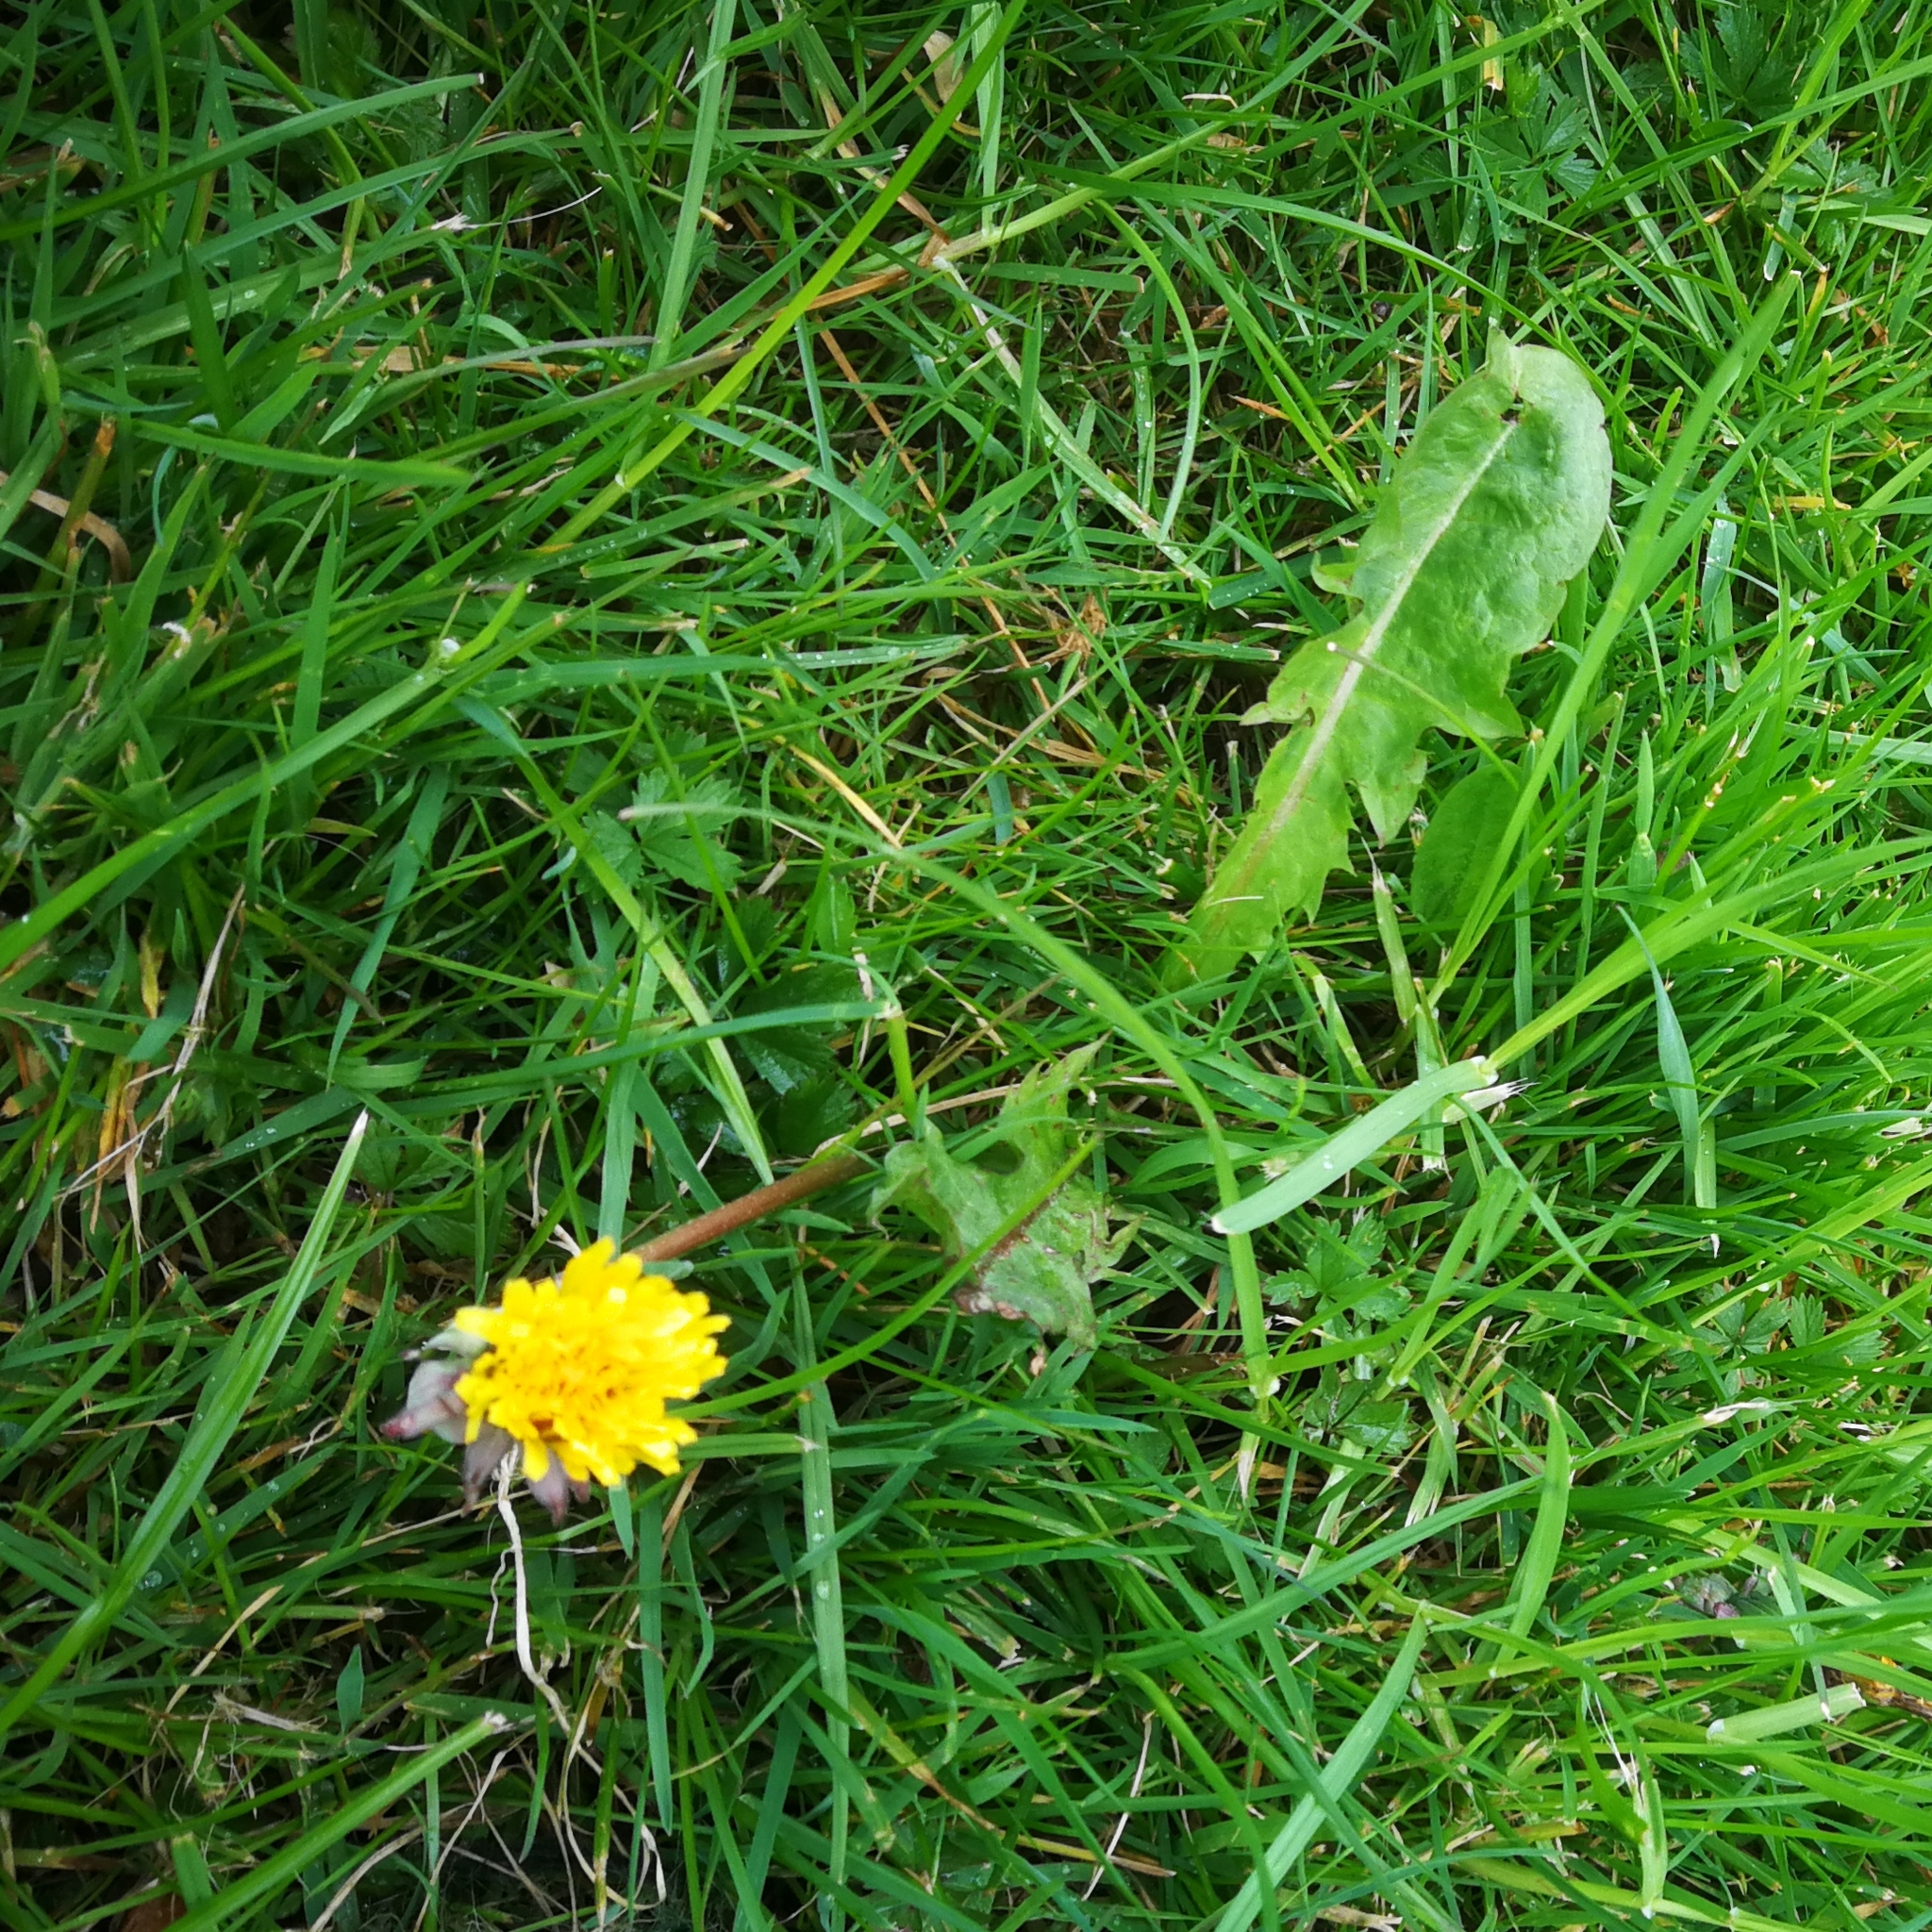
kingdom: Plantae
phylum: Tracheophyta
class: Magnoliopsida
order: Asterales
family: Asteraceae
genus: Taraxacum
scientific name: Taraxacum officinale
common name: Common dandelion
